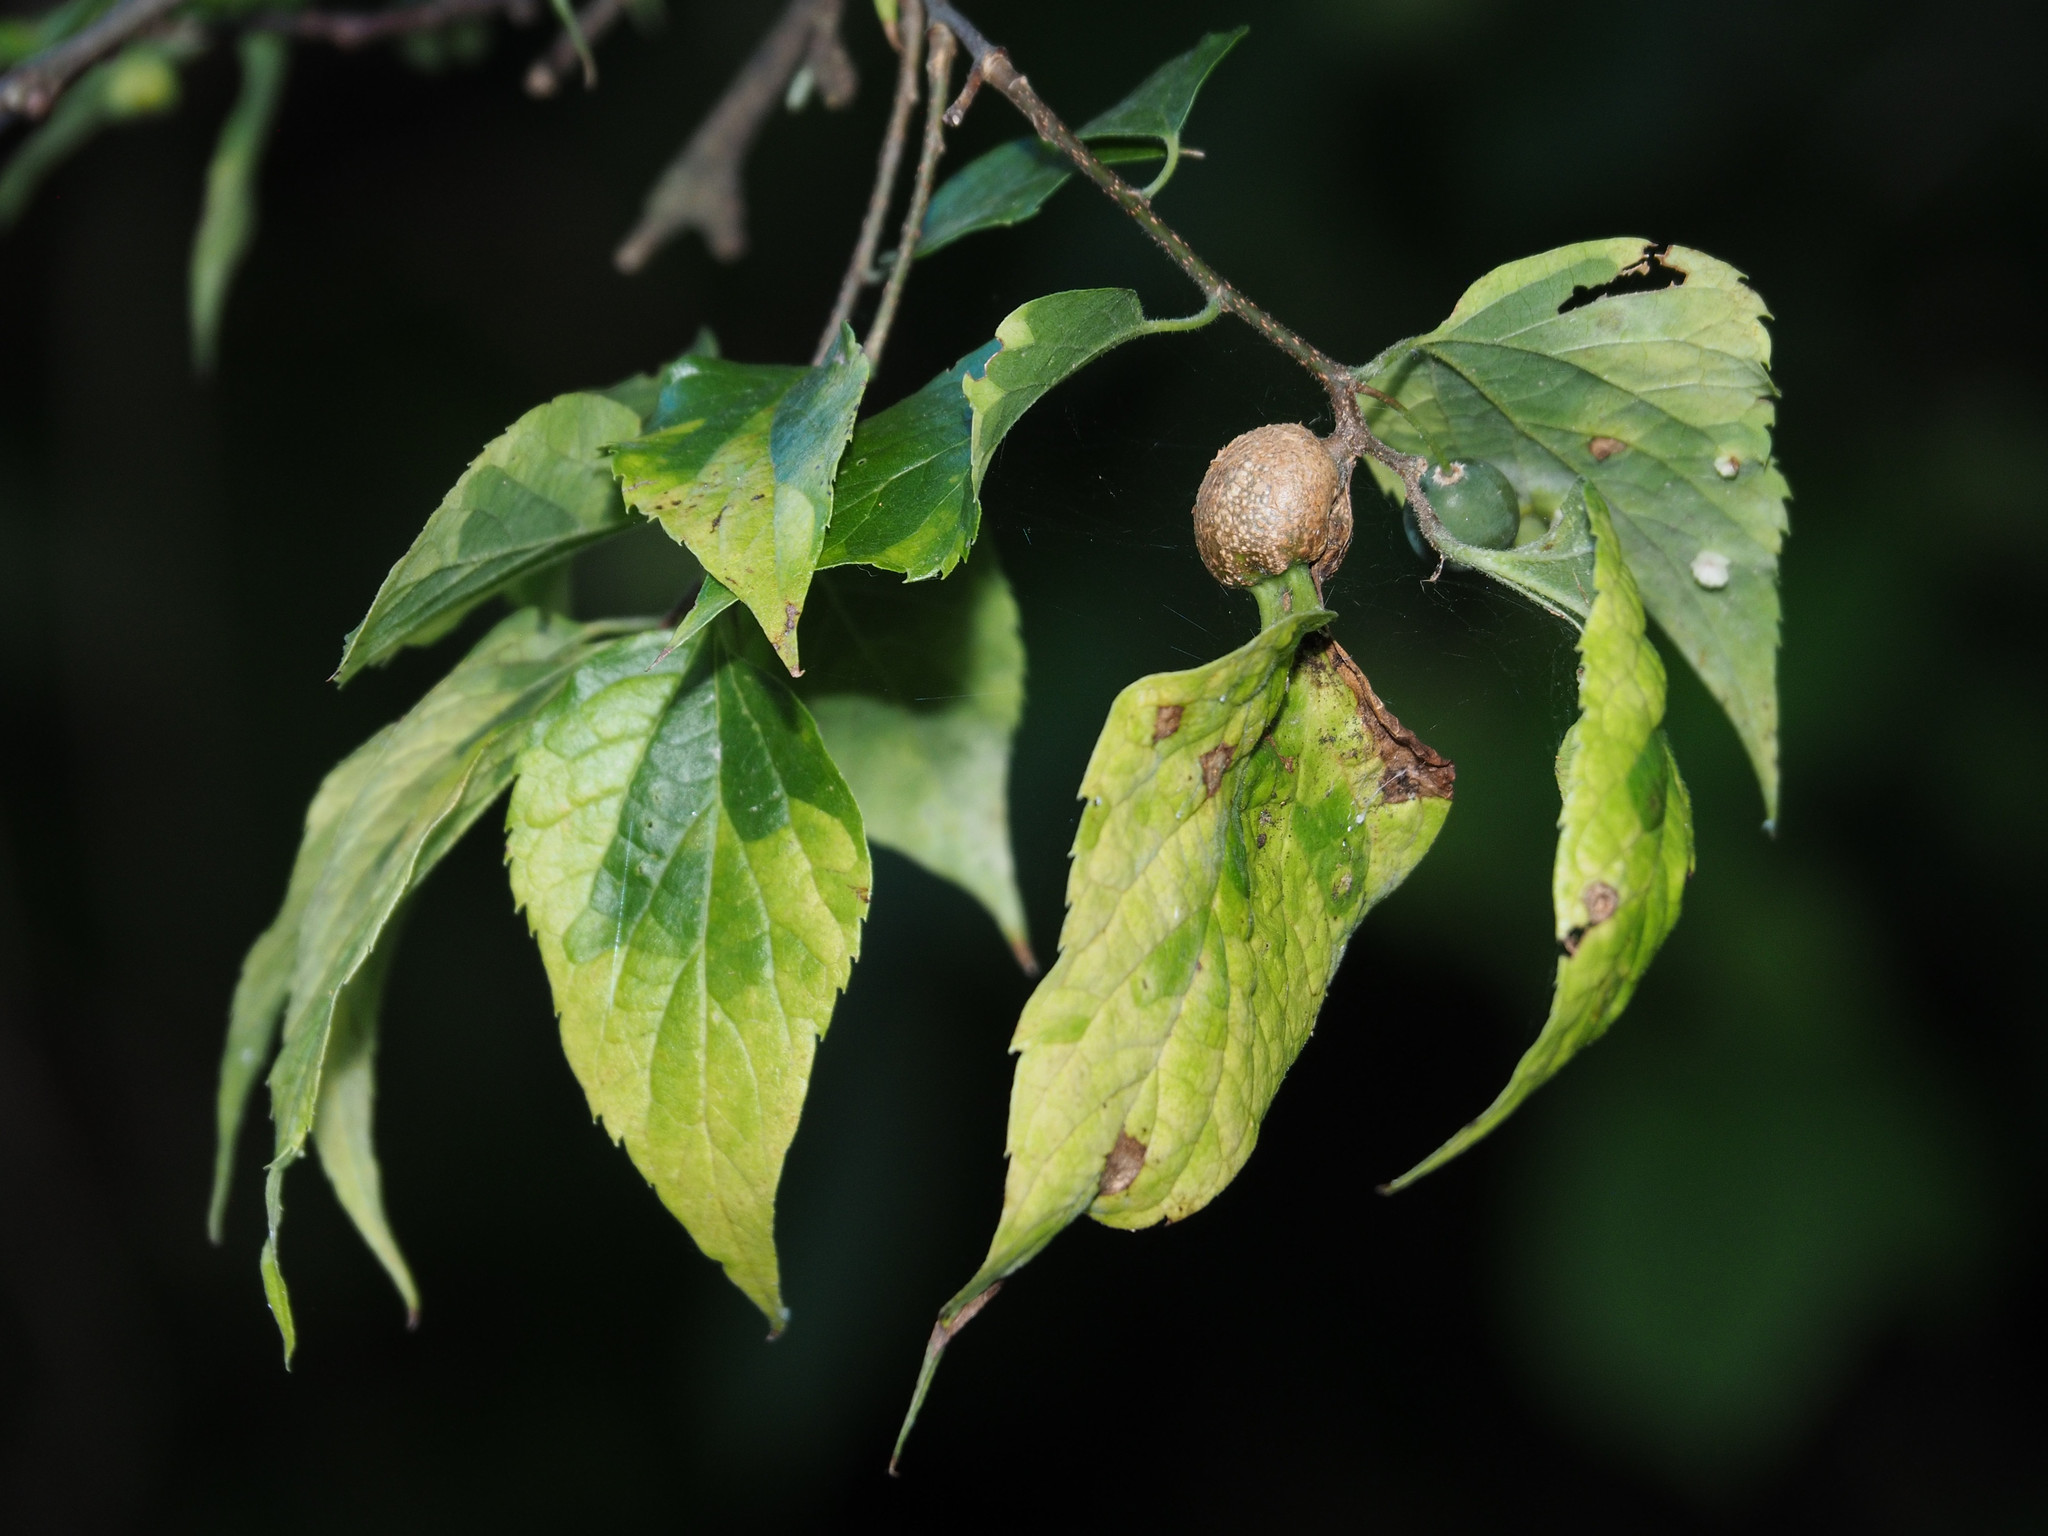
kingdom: Animalia
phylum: Arthropoda
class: Insecta
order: Hemiptera
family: Aphalaridae
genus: Pachypsylla
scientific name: Pachypsylla venusta
